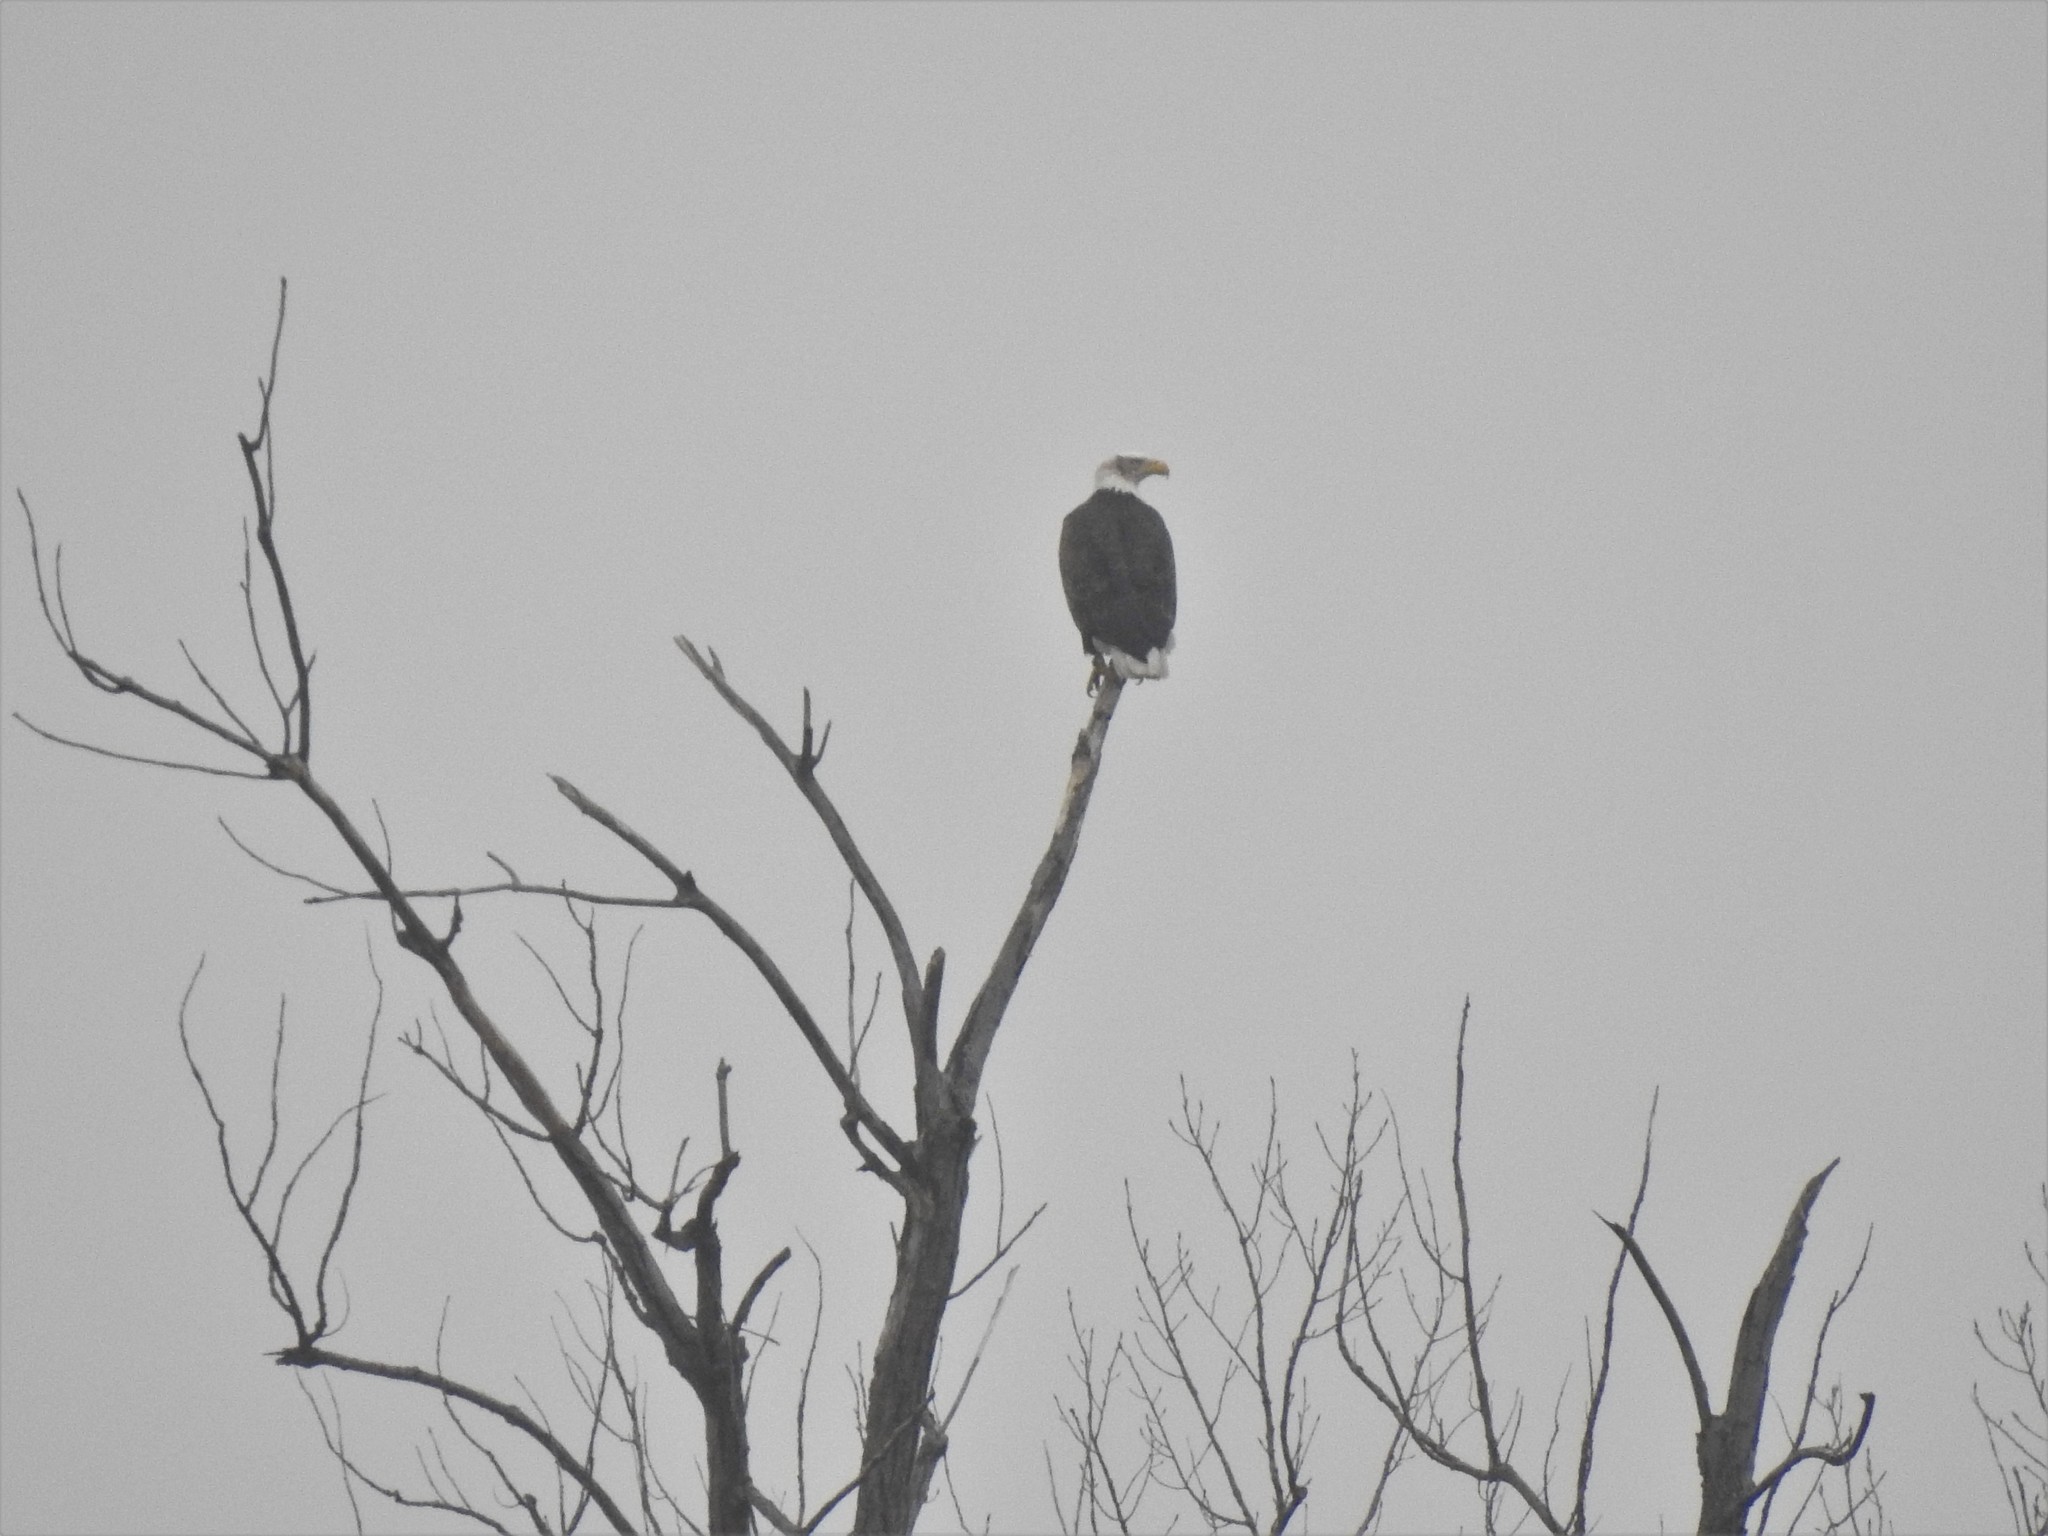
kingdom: Animalia
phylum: Chordata
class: Aves
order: Accipitriformes
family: Accipitridae
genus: Haliaeetus
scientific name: Haliaeetus leucocephalus
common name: Bald eagle
